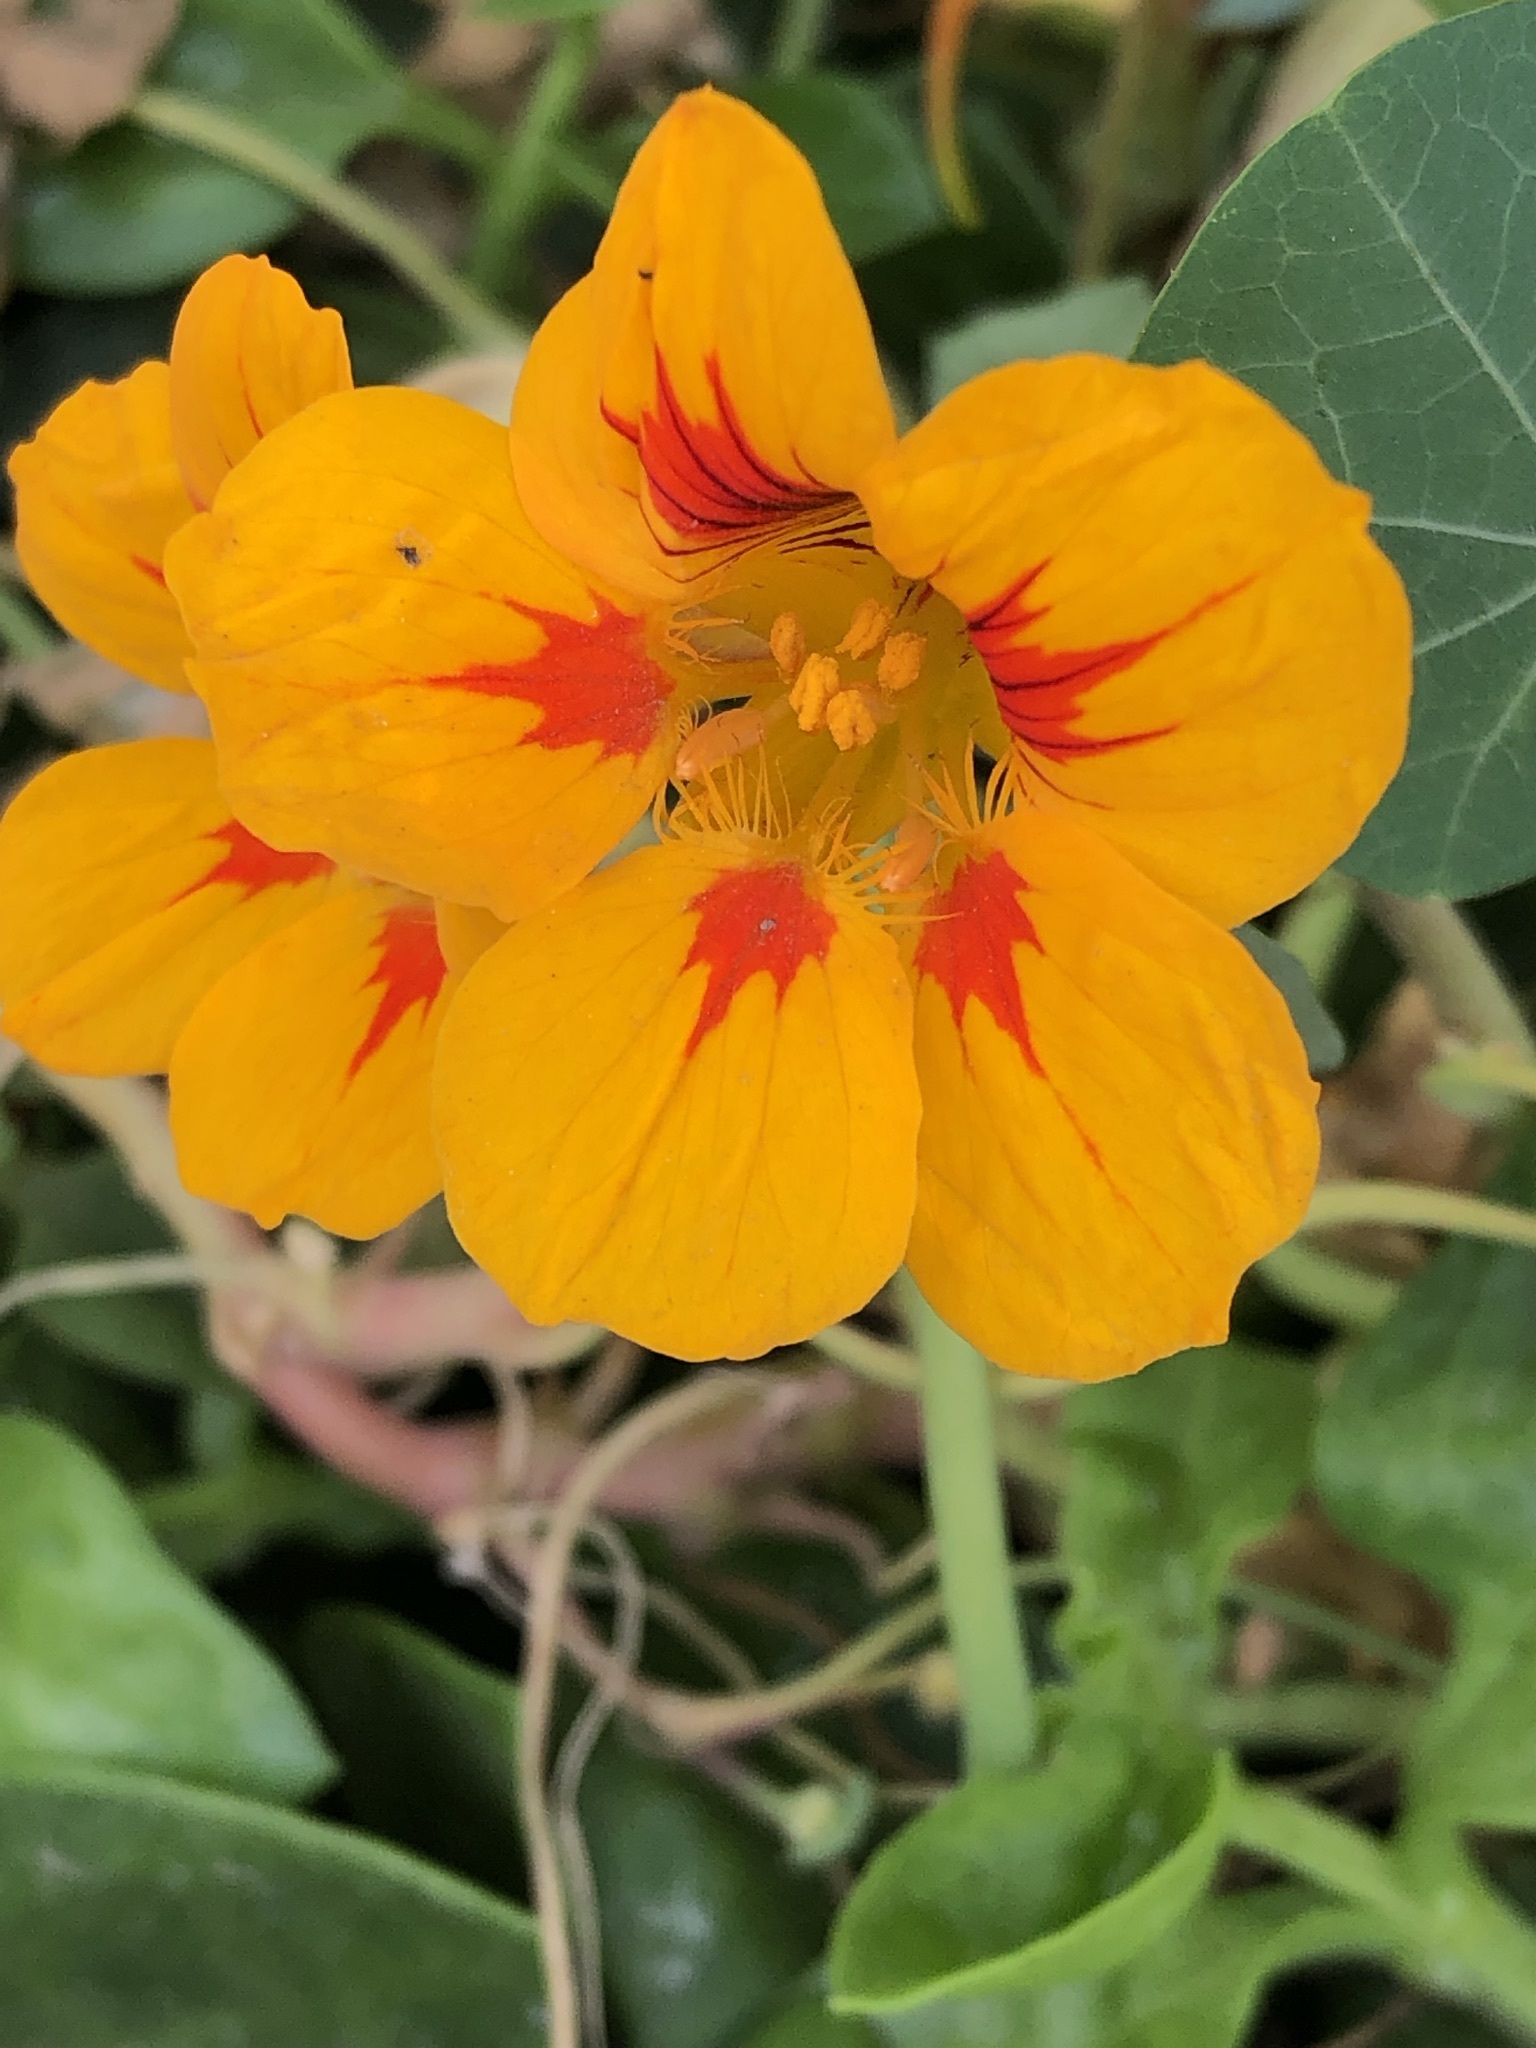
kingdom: Plantae
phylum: Tracheophyta
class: Magnoliopsida
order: Brassicales
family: Tropaeolaceae
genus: Tropaeolum
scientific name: Tropaeolum majus
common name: Nasturtium
